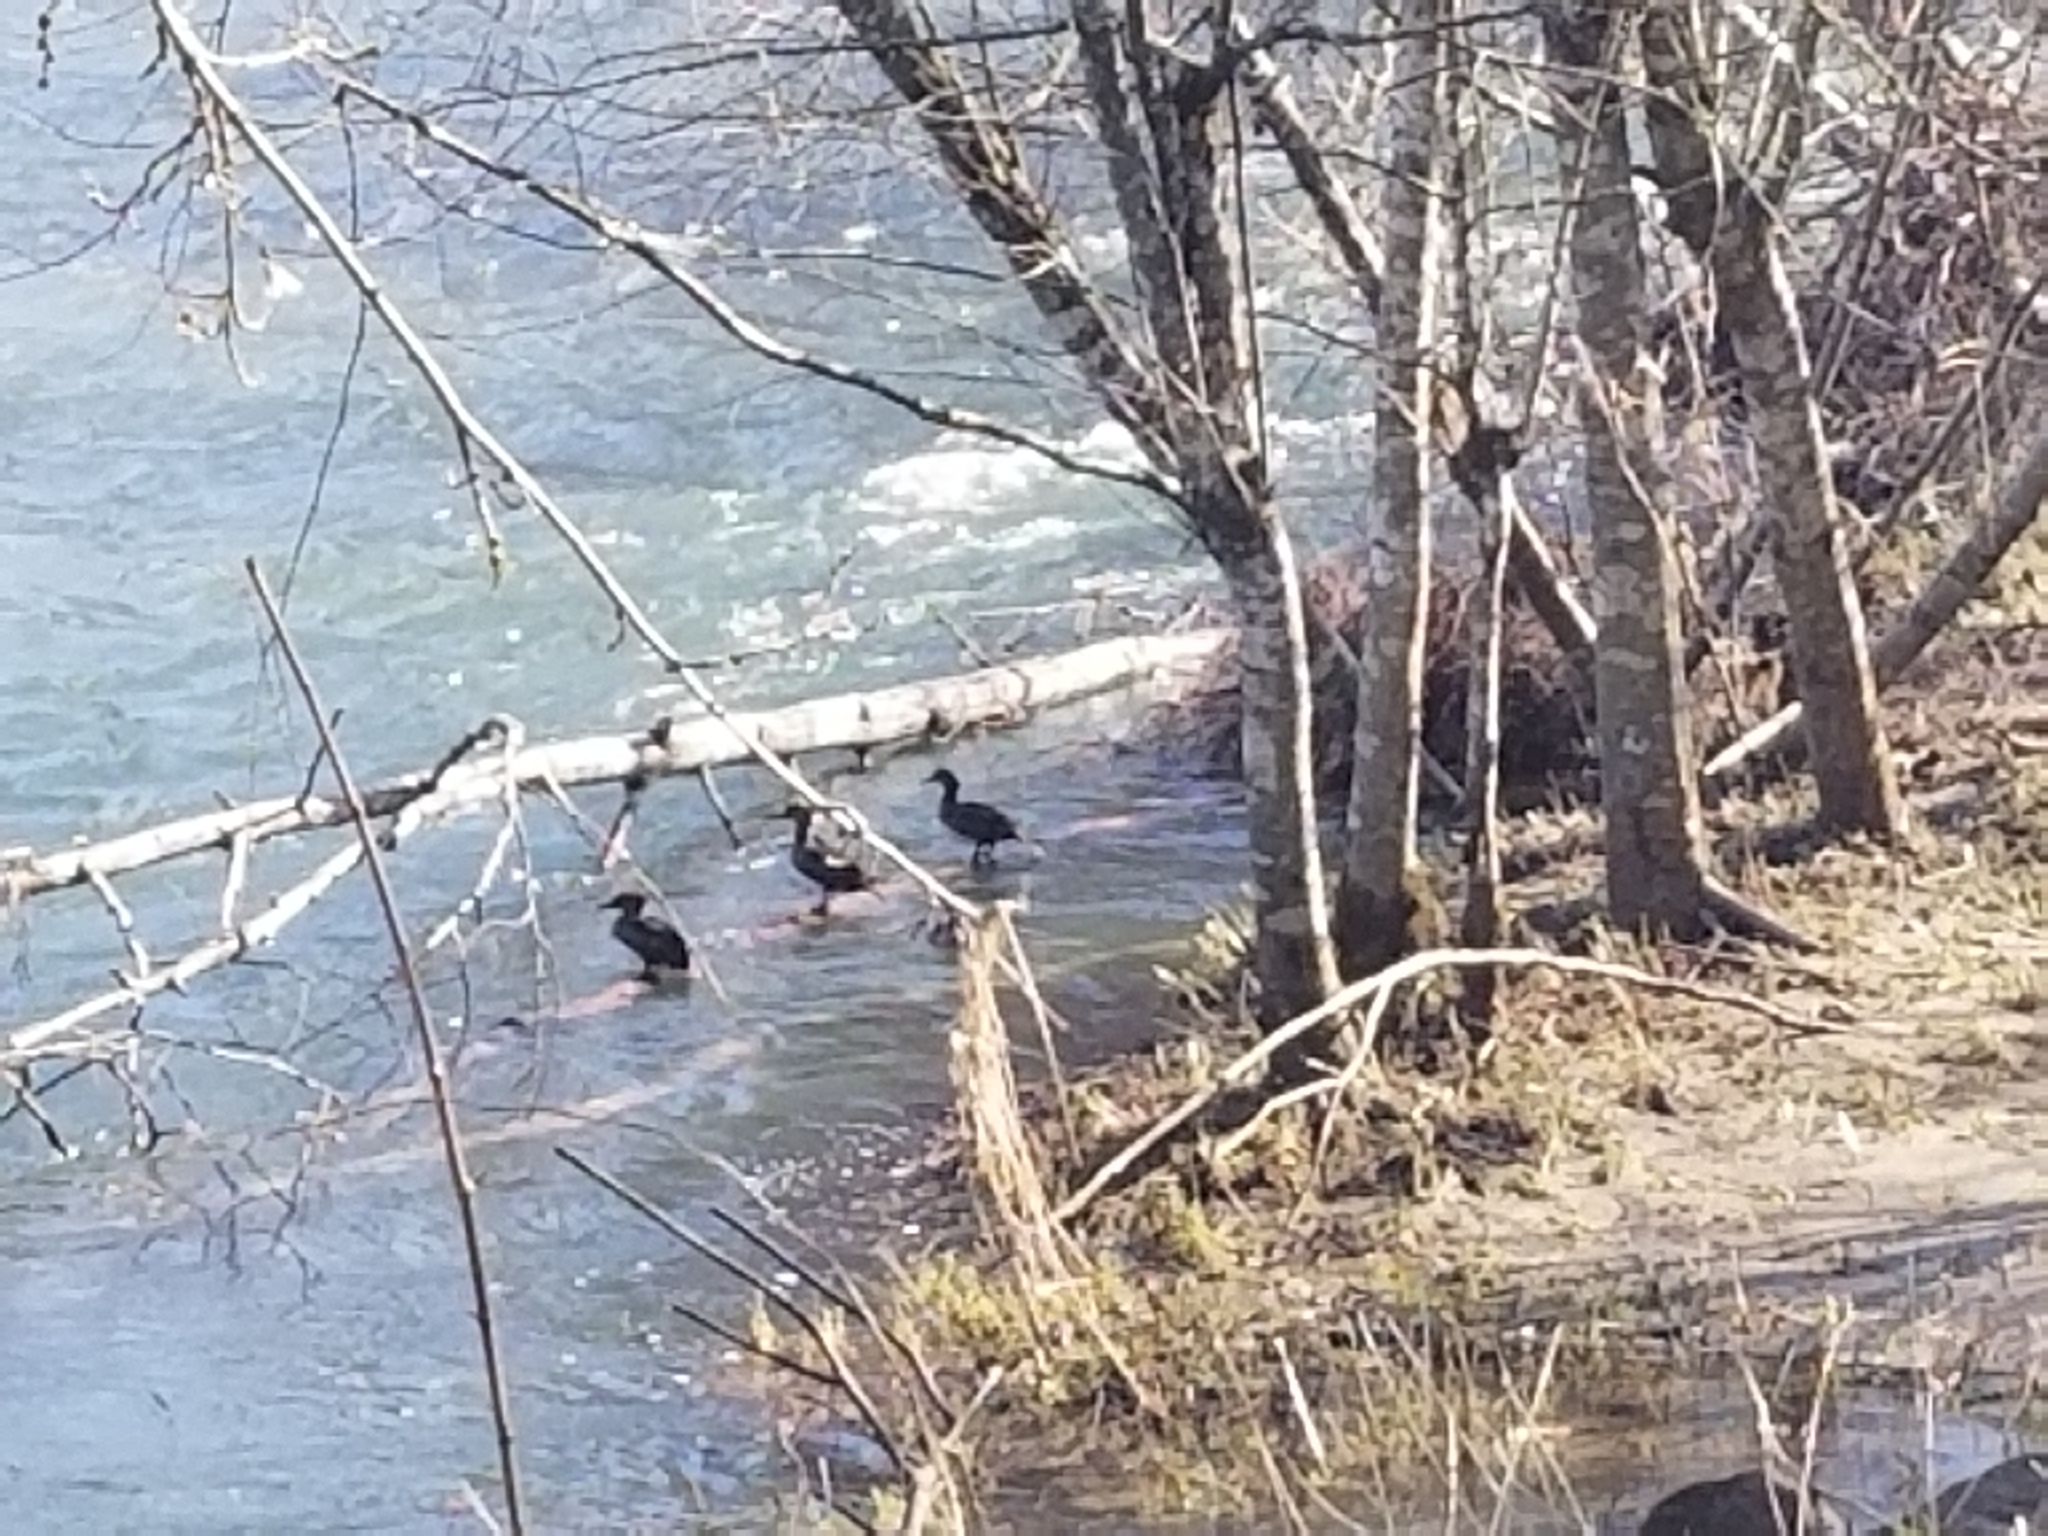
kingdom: Animalia
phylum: Chordata
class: Aves
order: Anseriformes
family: Anatidae
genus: Mergus
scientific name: Mergus serrator
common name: Red-breasted merganser
